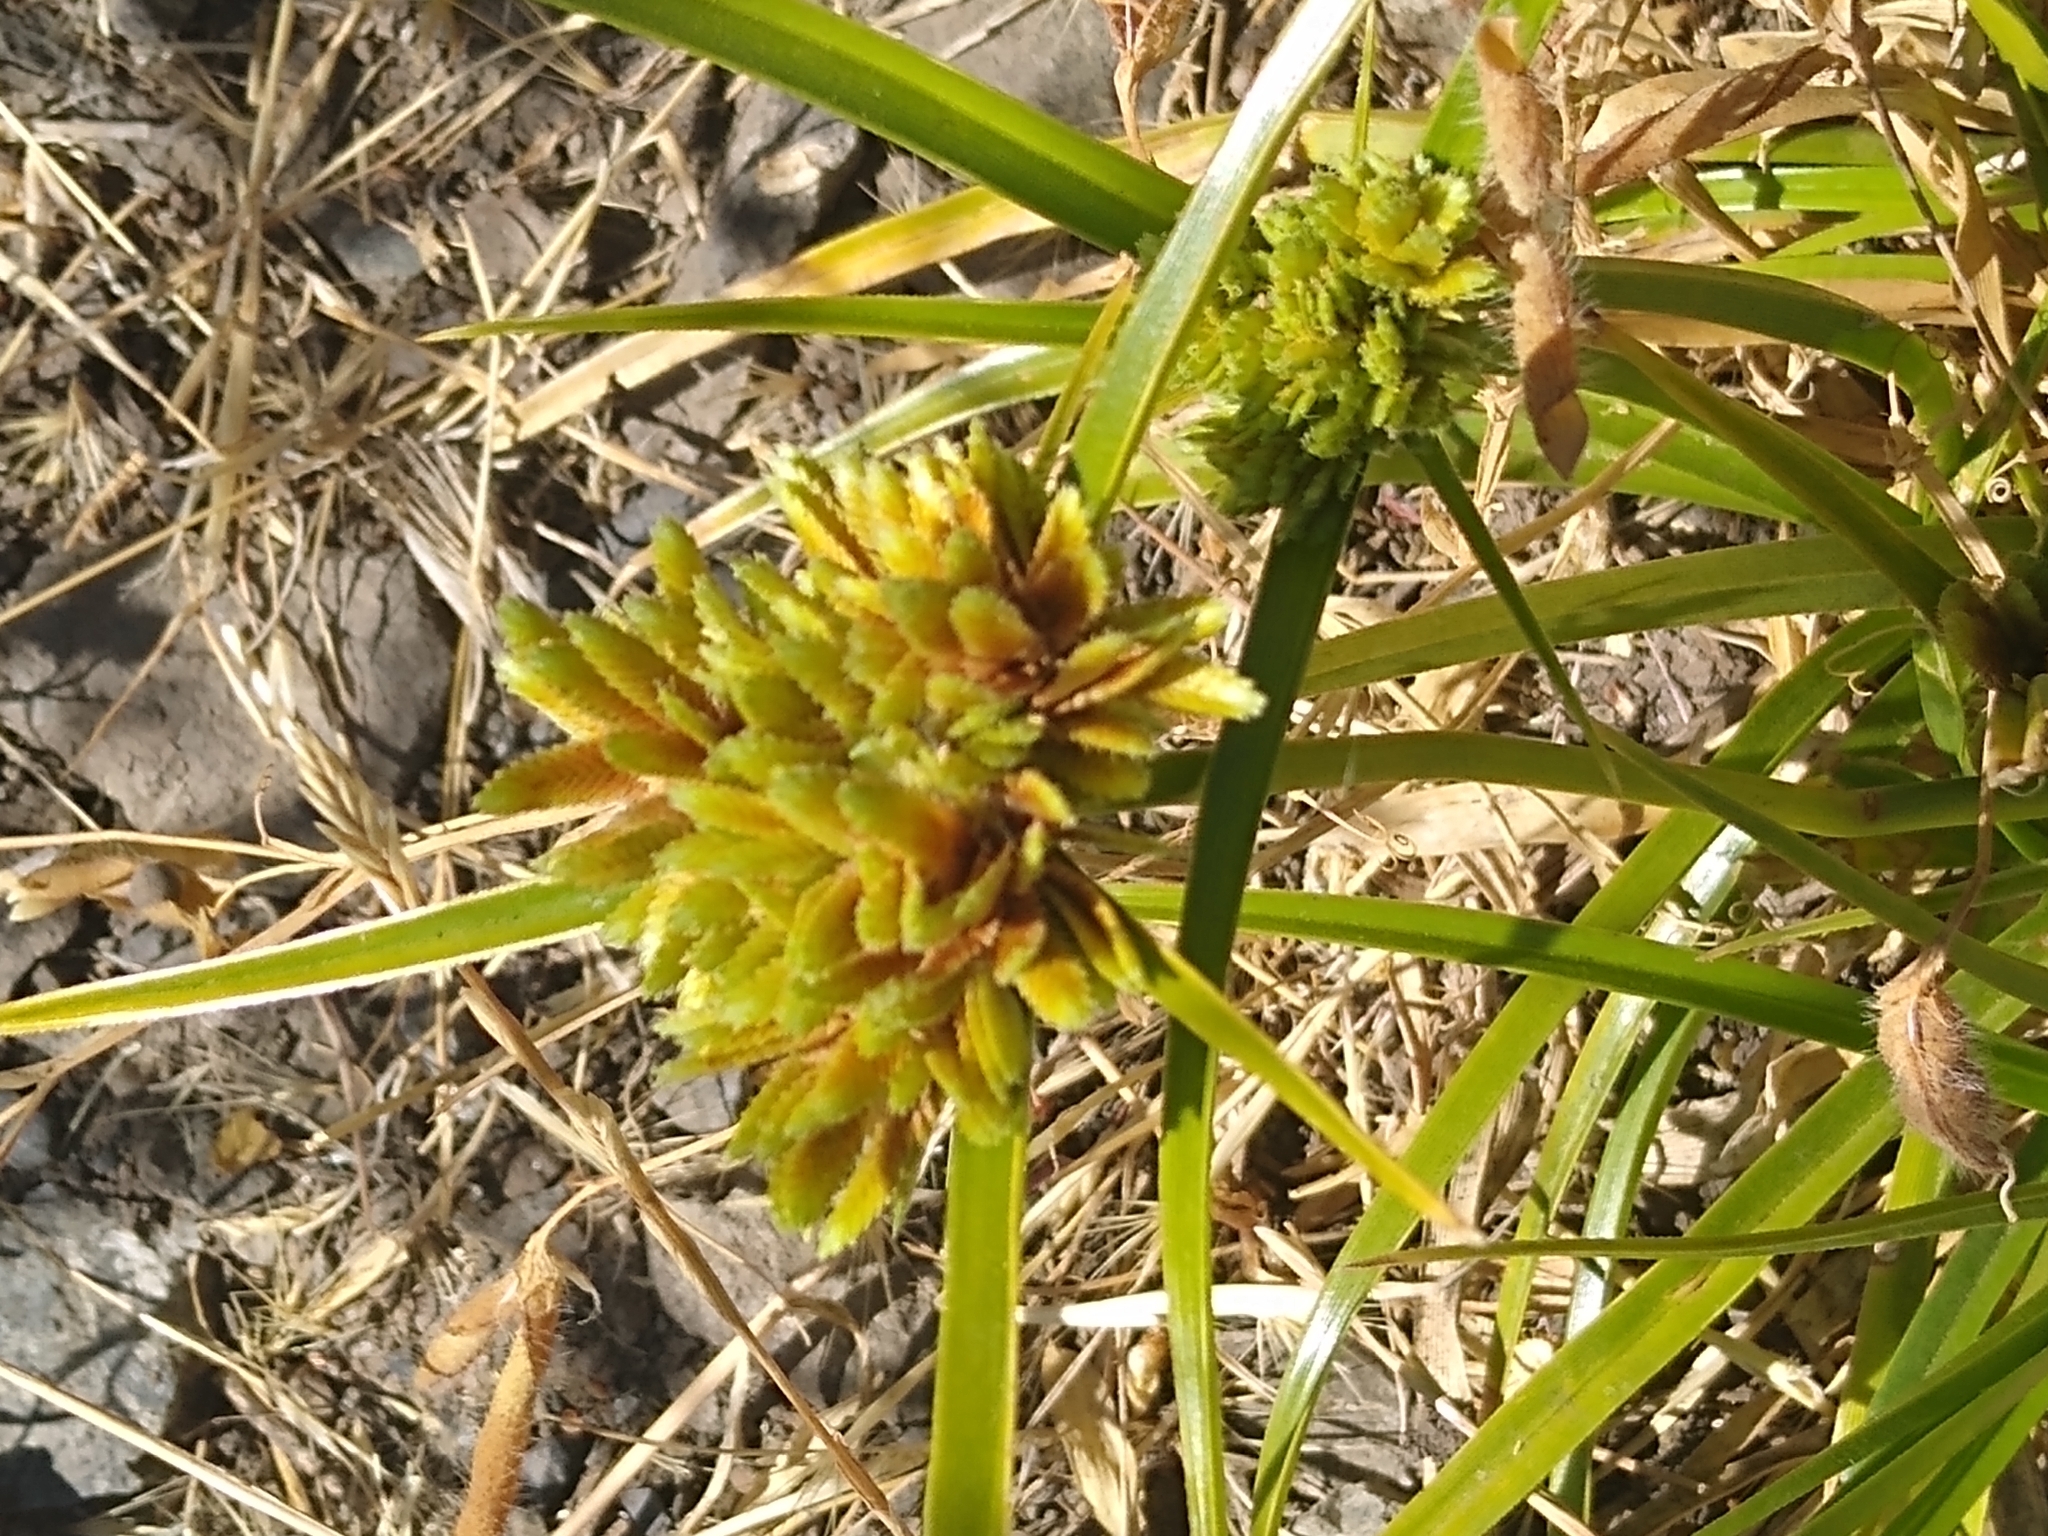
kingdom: Plantae
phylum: Tracheophyta
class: Liliopsida
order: Poales
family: Cyperaceae
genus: Cyperus
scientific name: Cyperus eragrostis
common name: Tall flatsedge
